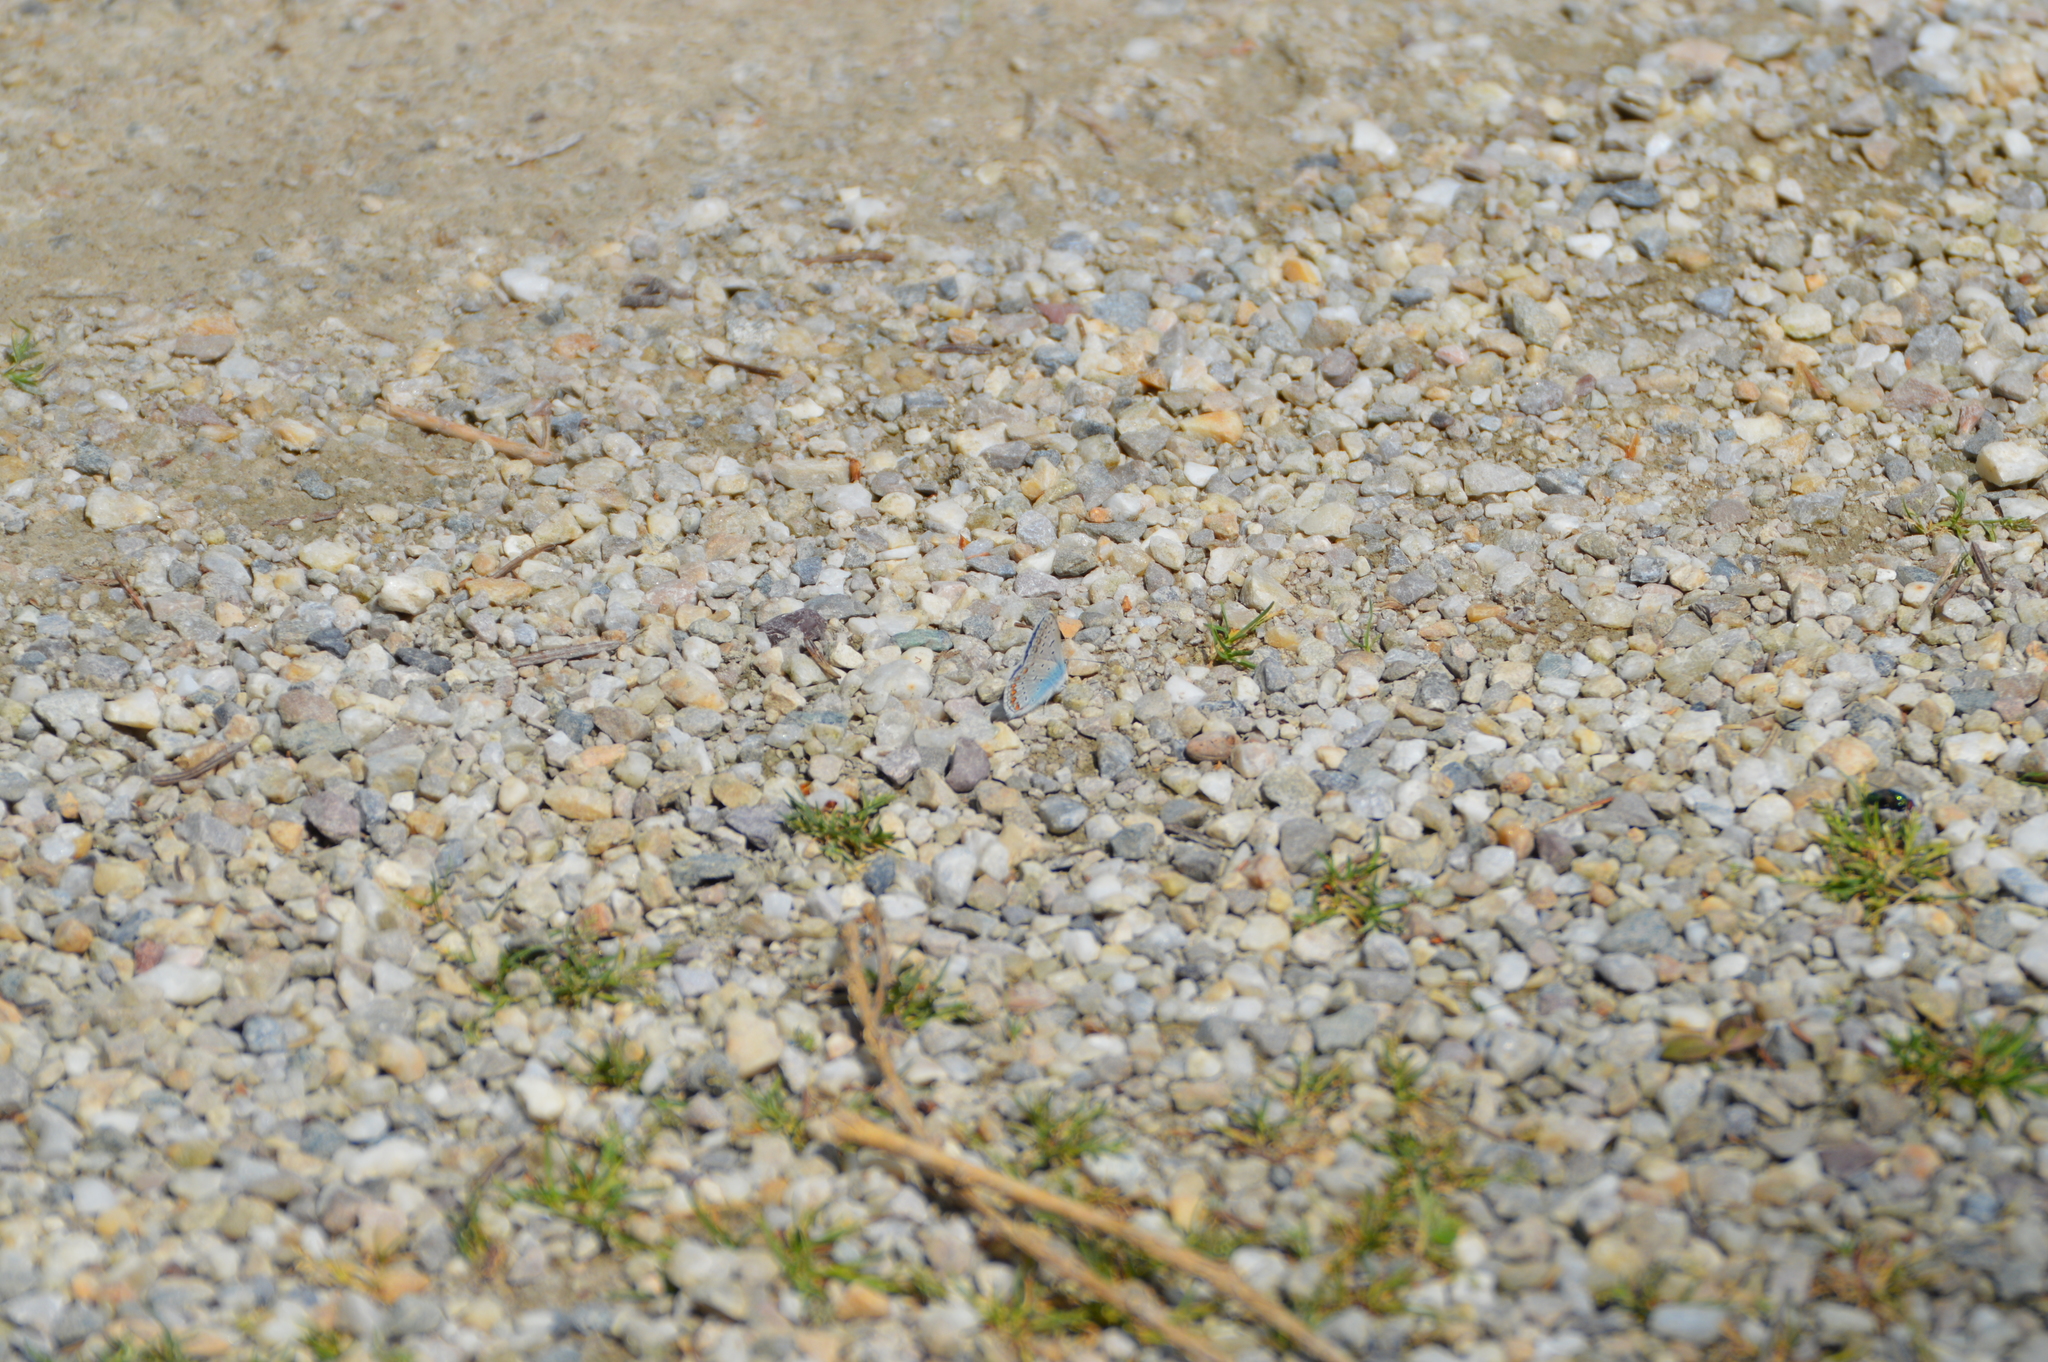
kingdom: Animalia
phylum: Arthropoda
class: Insecta
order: Lepidoptera
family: Lycaenidae
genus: Polyommatus
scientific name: Polyommatus icarus
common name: Common blue
